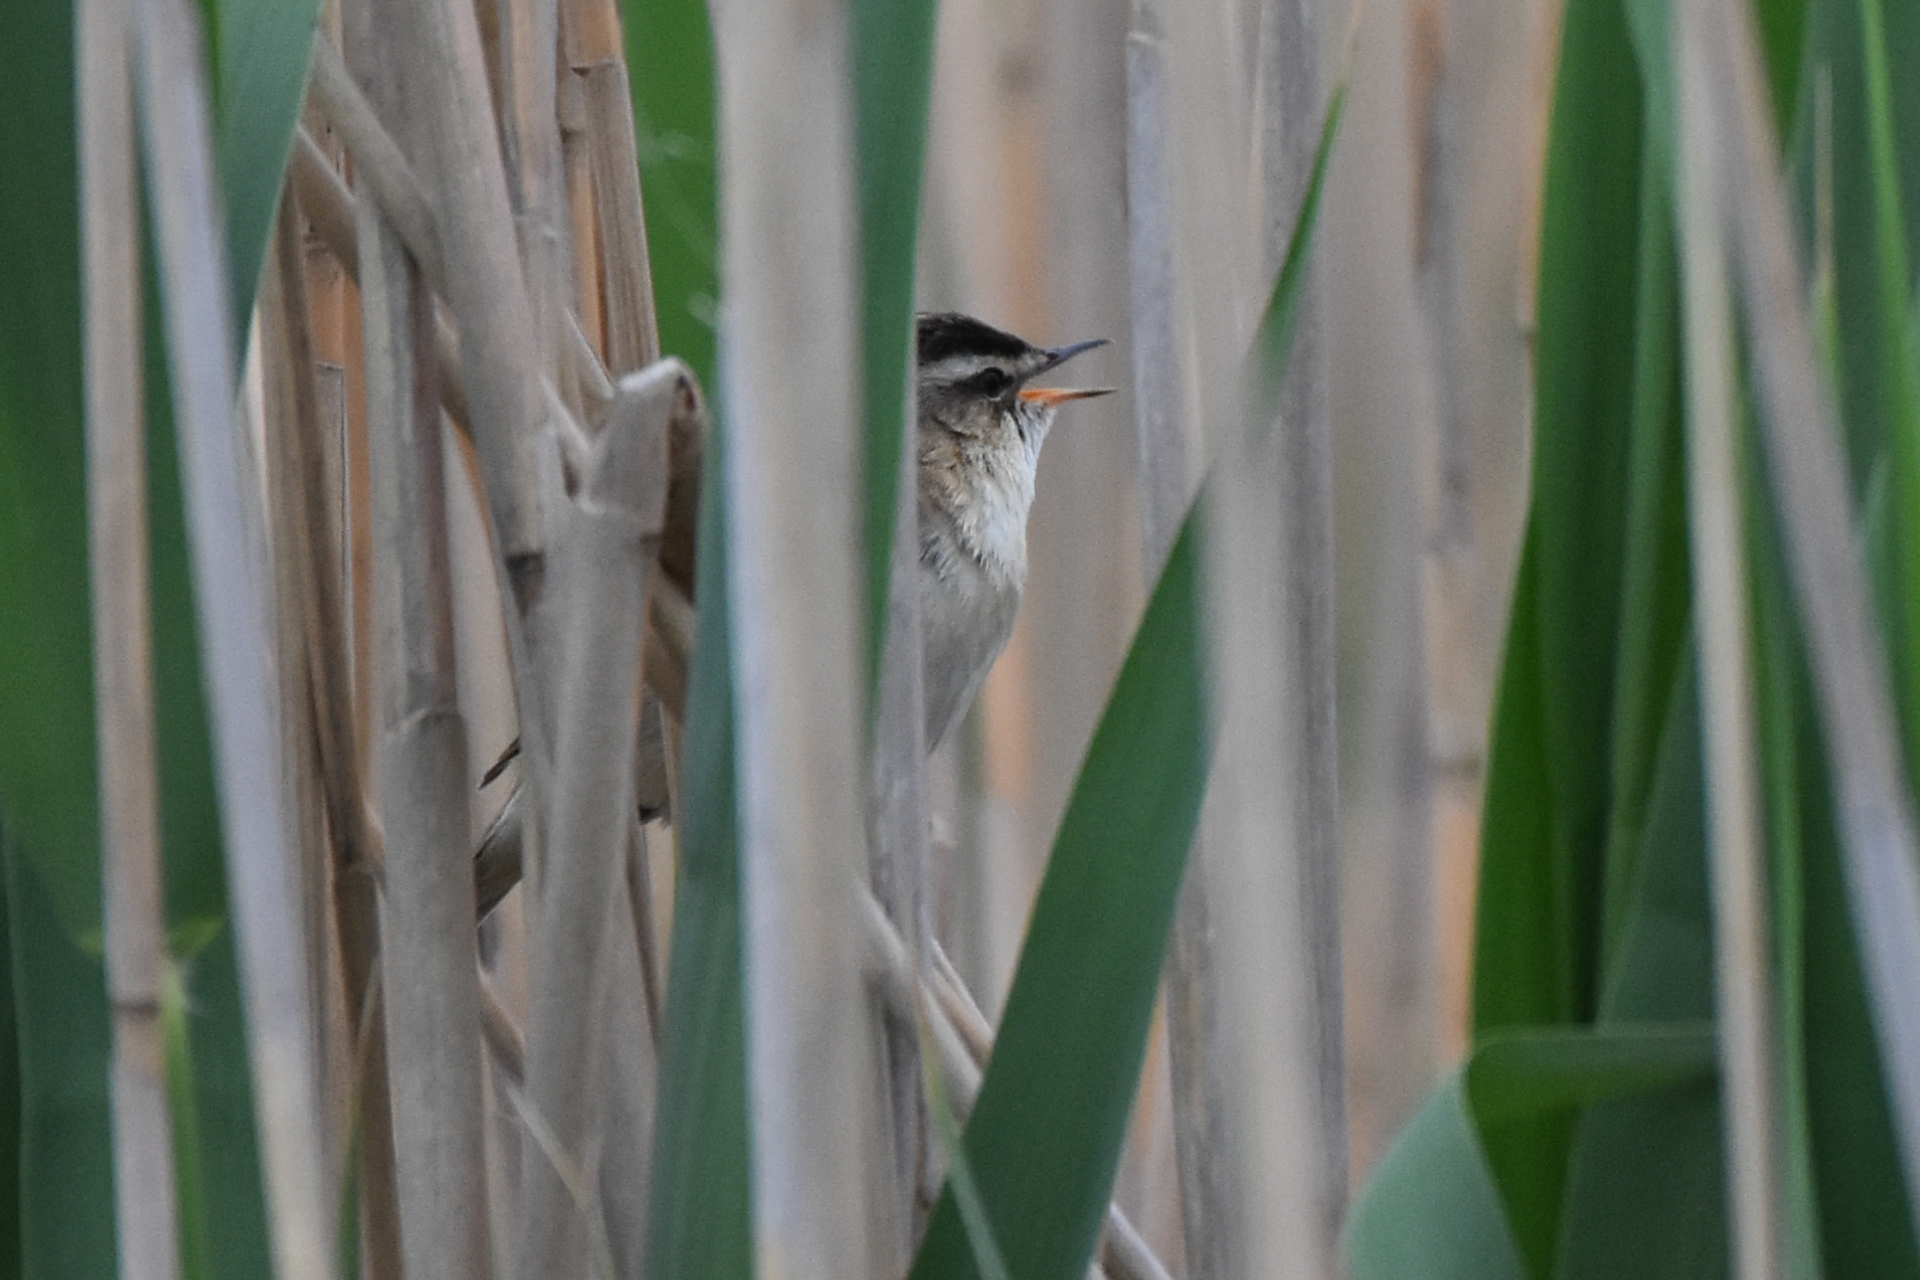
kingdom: Animalia
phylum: Chordata
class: Aves
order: Passeriformes
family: Acrocephalidae
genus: Acrocephalus
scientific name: Acrocephalus schoenobaenus
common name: Sedge warbler
